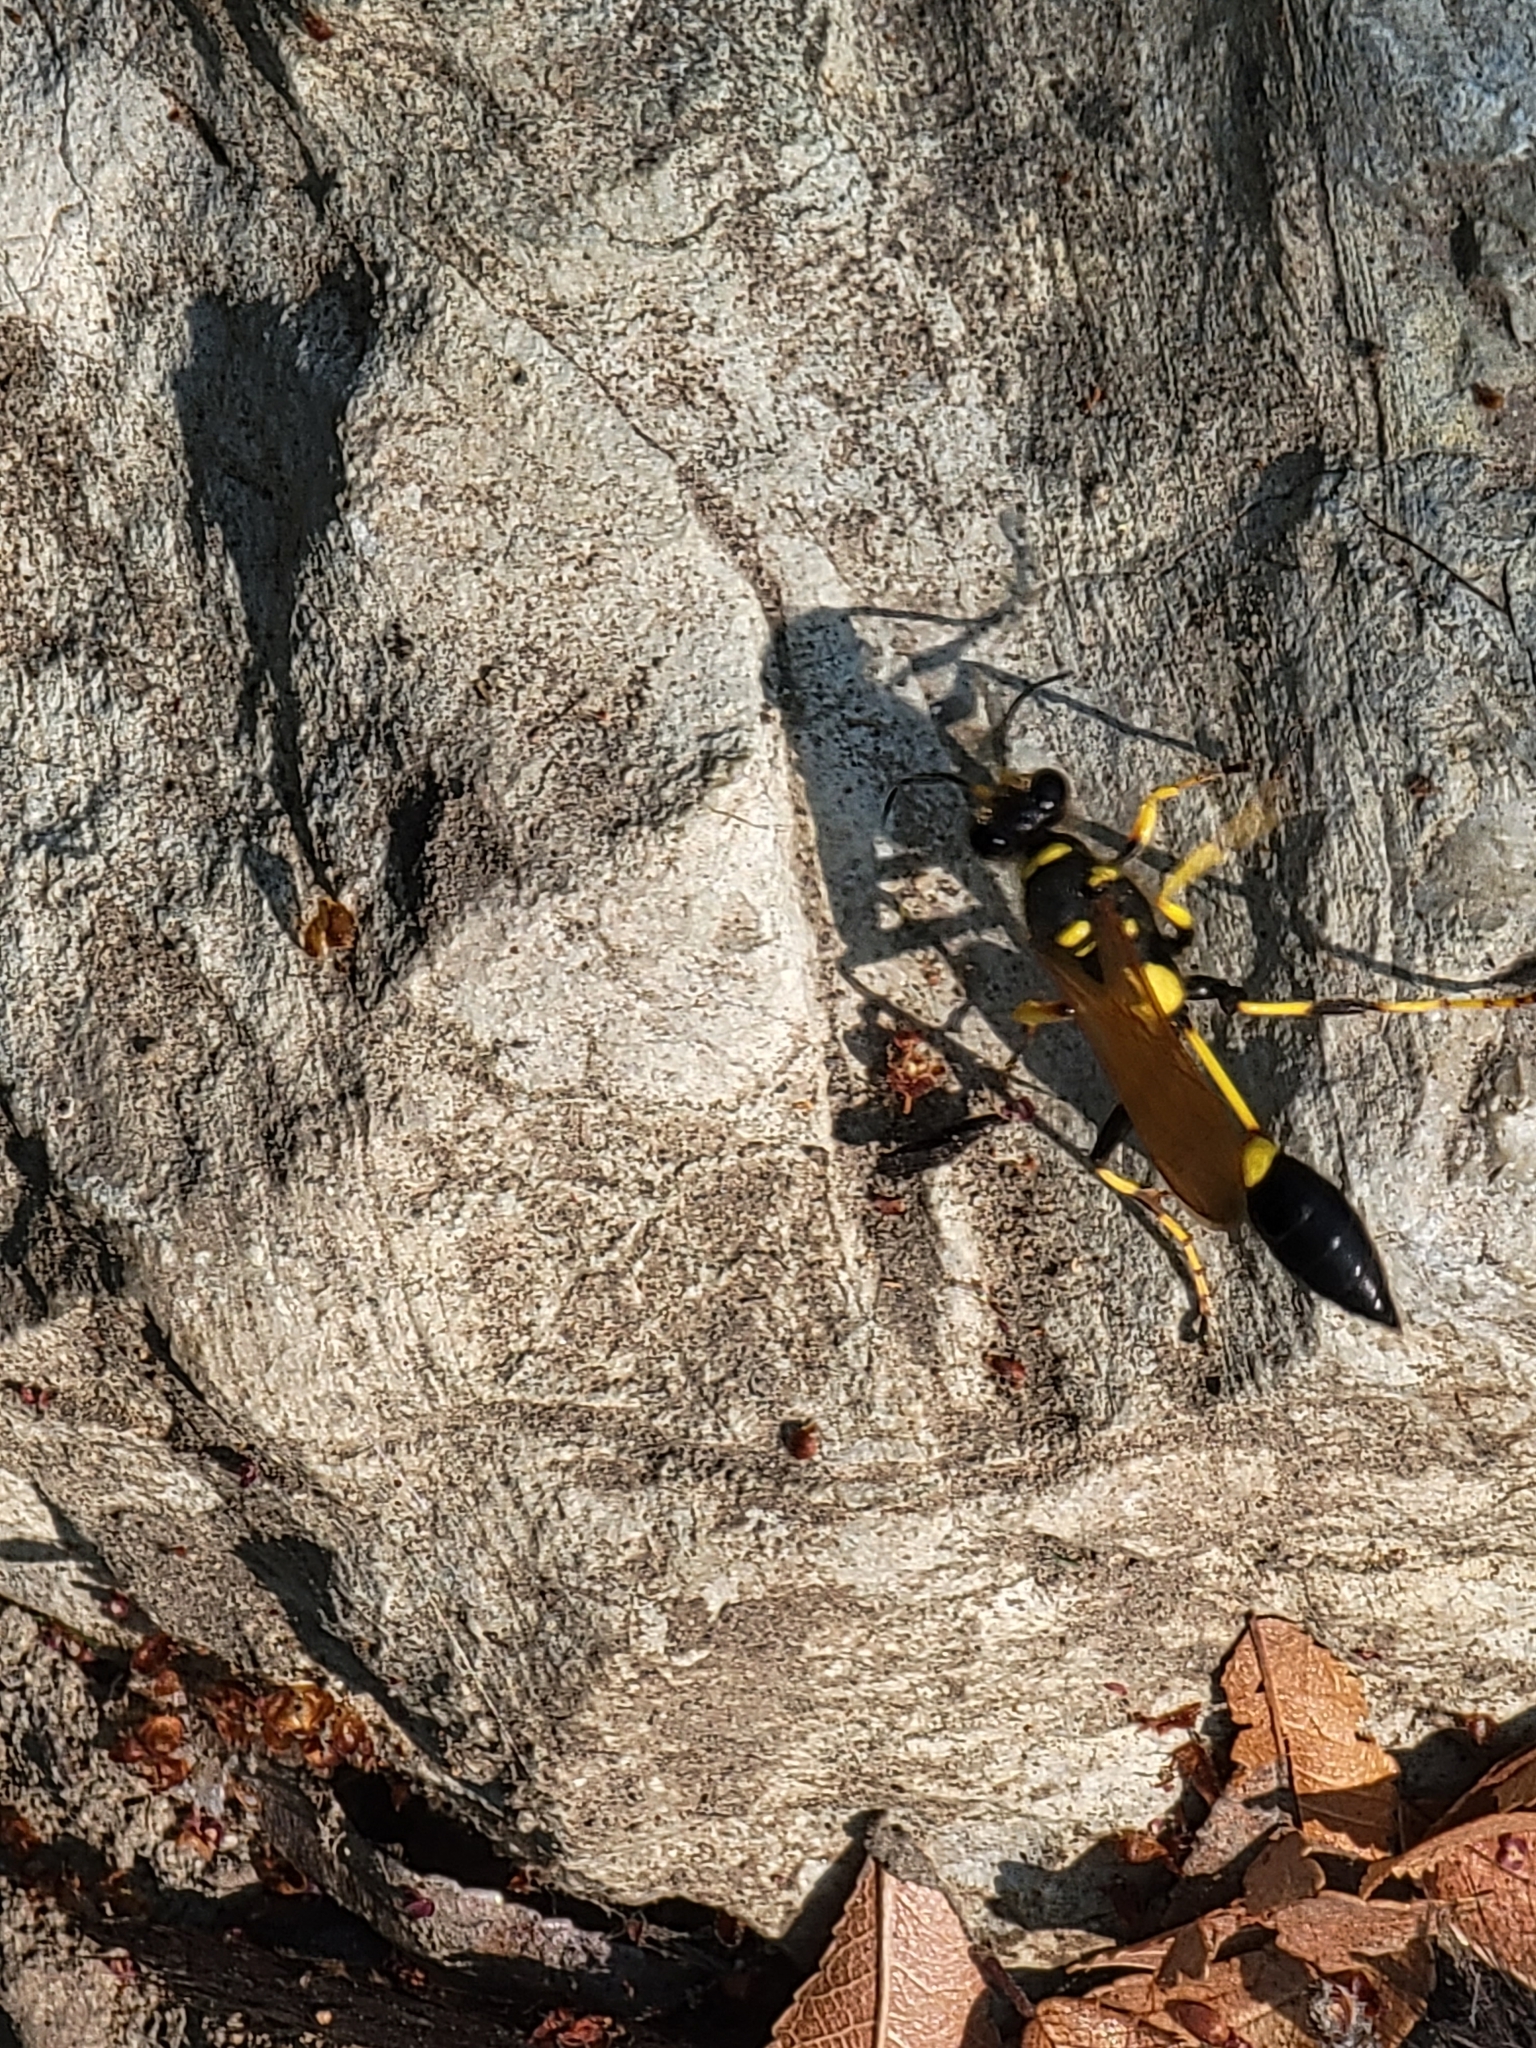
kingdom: Animalia
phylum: Arthropoda
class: Insecta
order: Hymenoptera
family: Sphecidae
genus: Sceliphron
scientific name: Sceliphron caementarium
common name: Mud dauber
